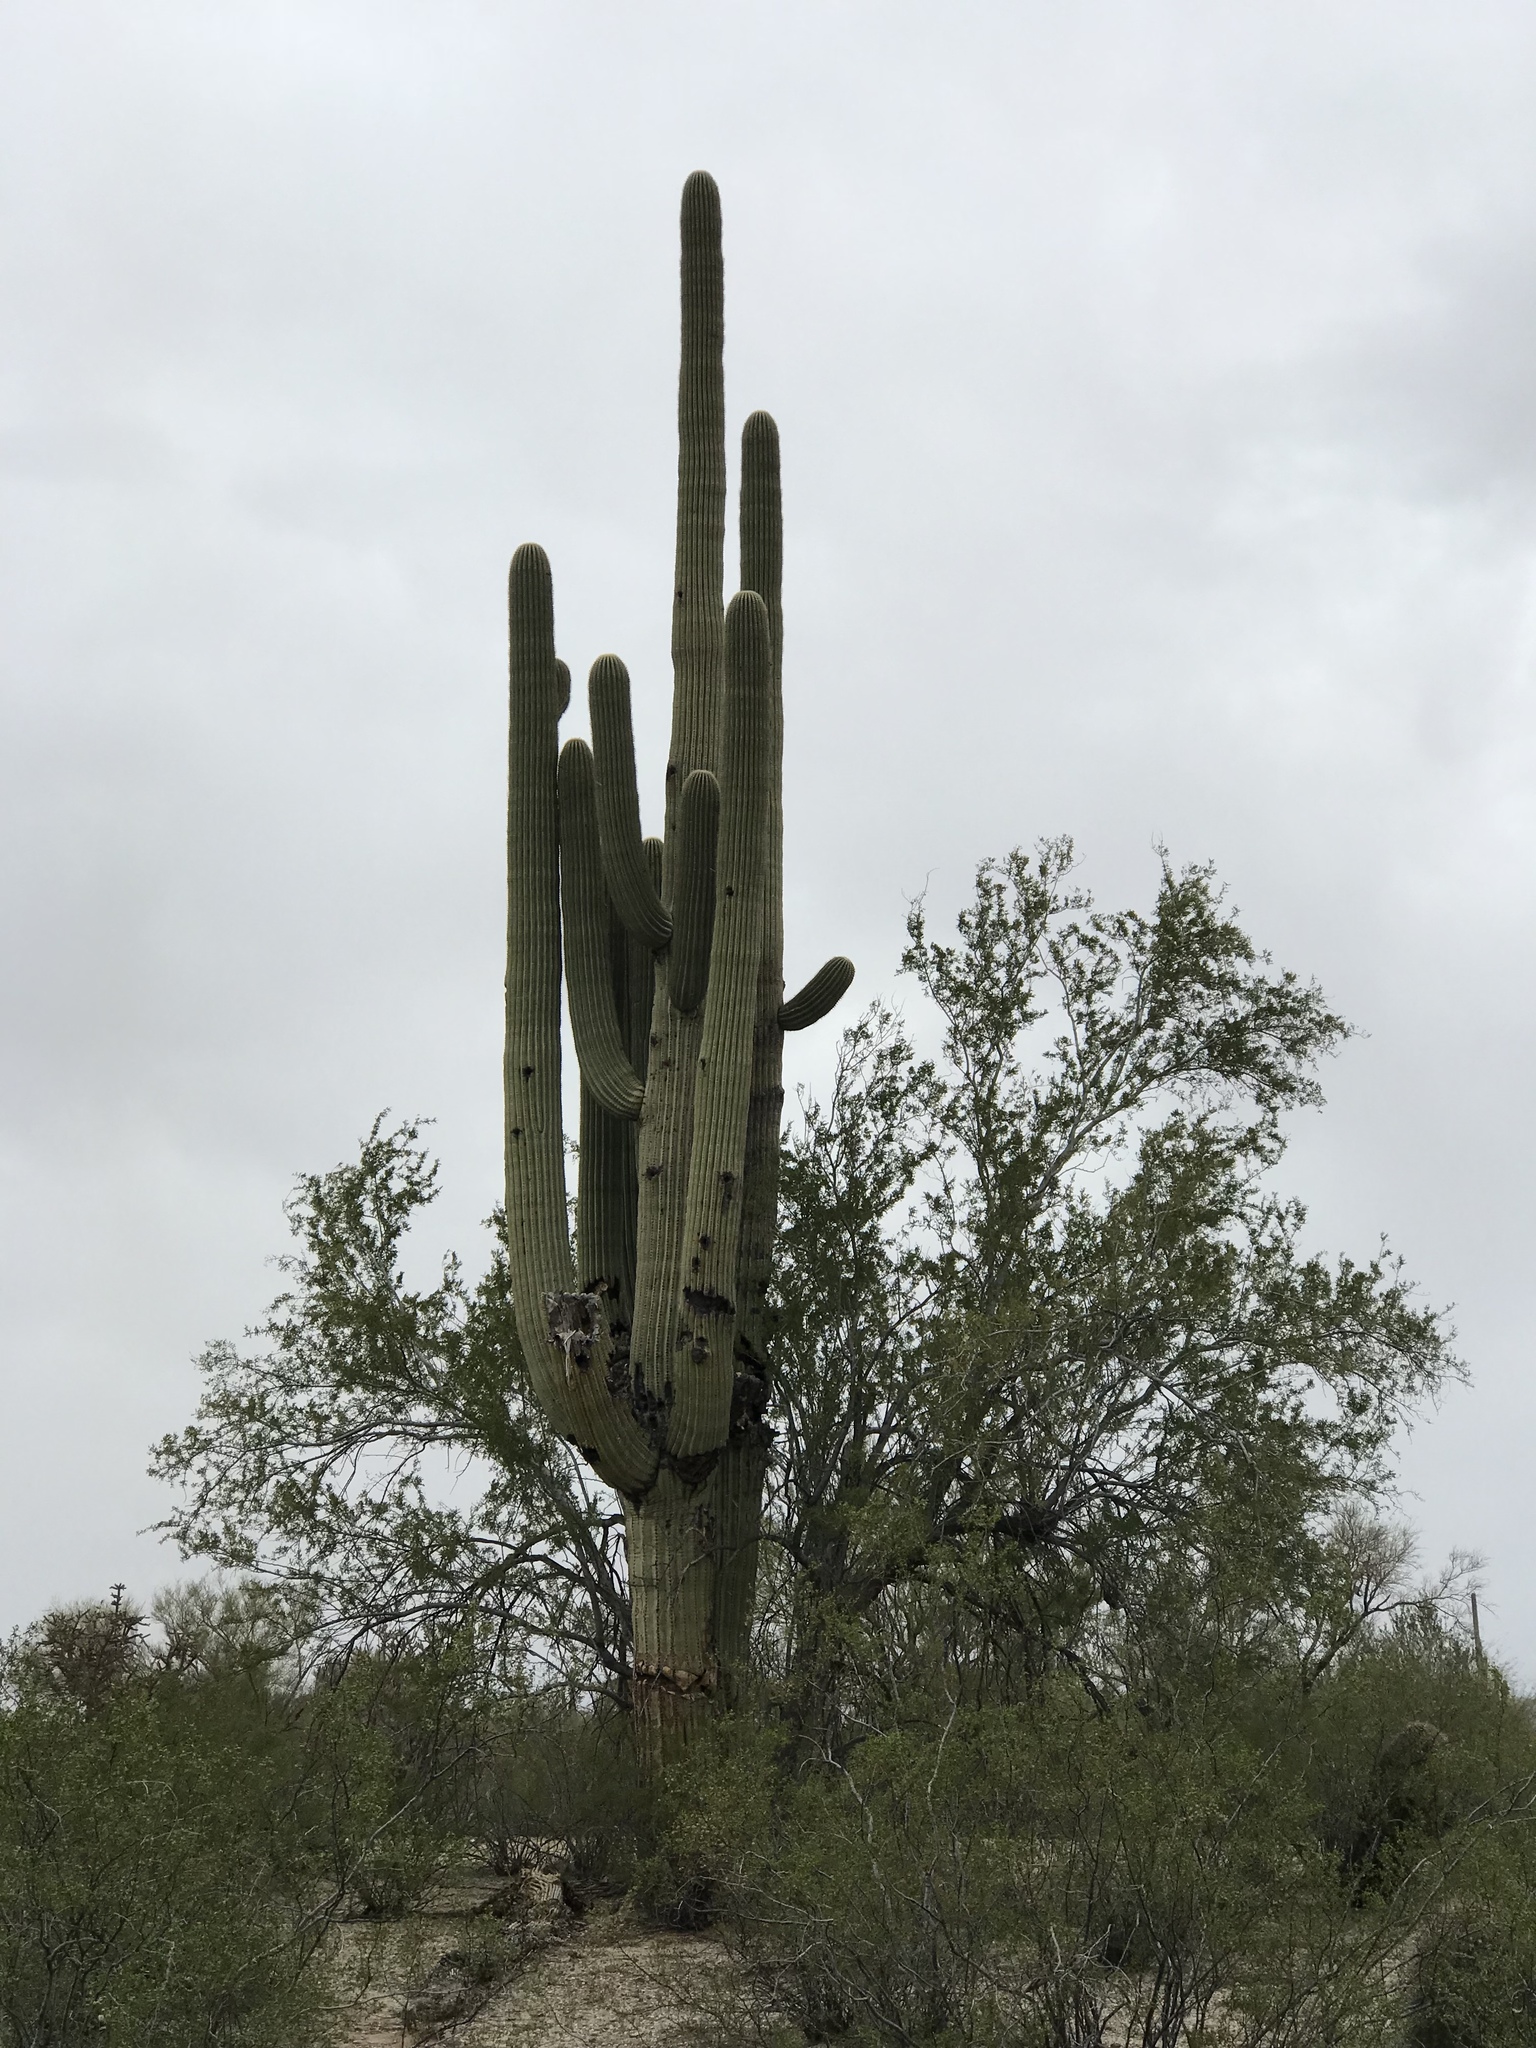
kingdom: Plantae
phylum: Tracheophyta
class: Magnoliopsida
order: Caryophyllales
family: Cactaceae
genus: Carnegiea
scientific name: Carnegiea gigantea
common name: Saguaro
